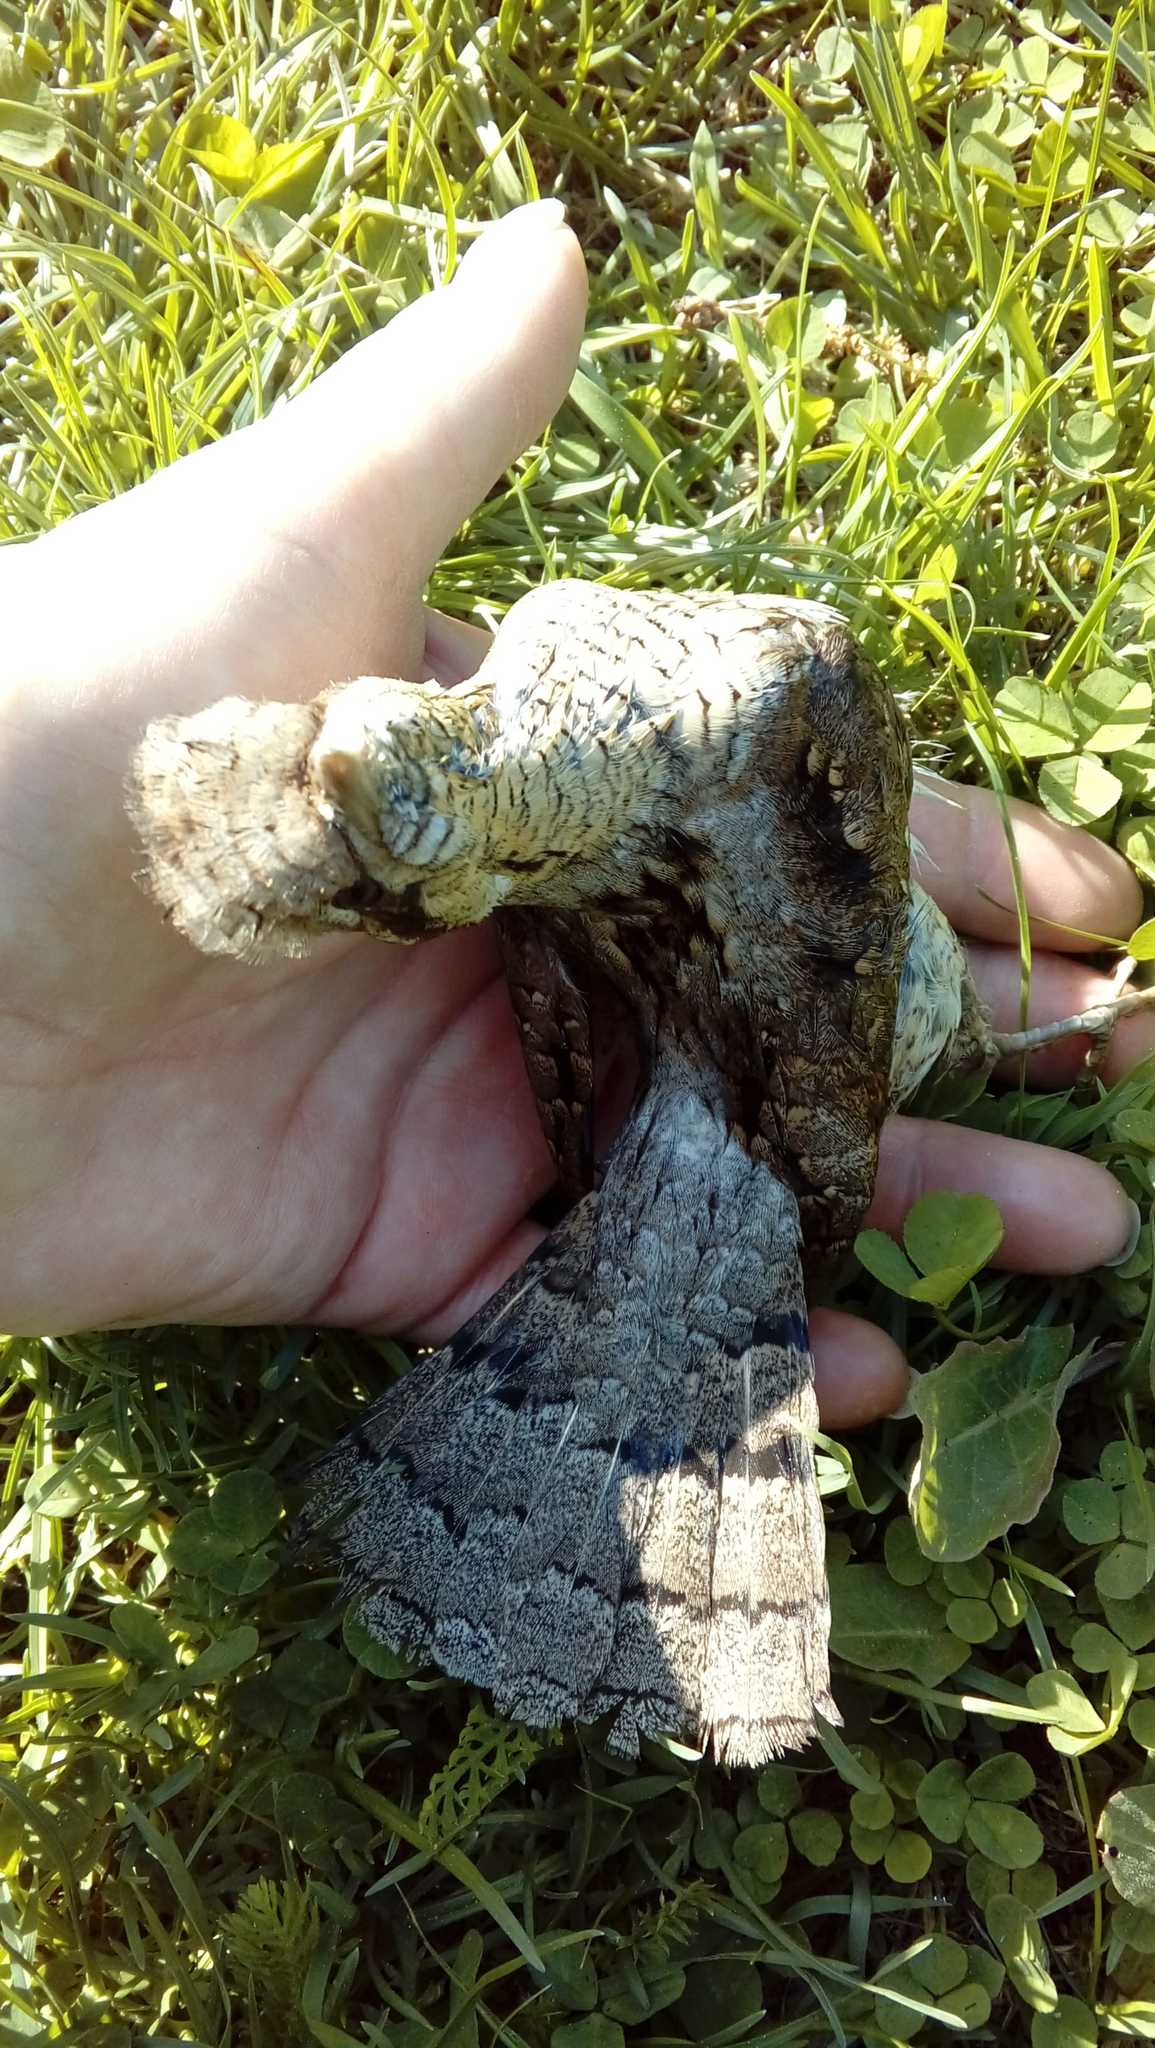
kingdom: Animalia
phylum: Chordata
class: Aves
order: Piciformes
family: Picidae
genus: Jynx
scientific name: Jynx torquilla
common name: Eurasian wryneck
